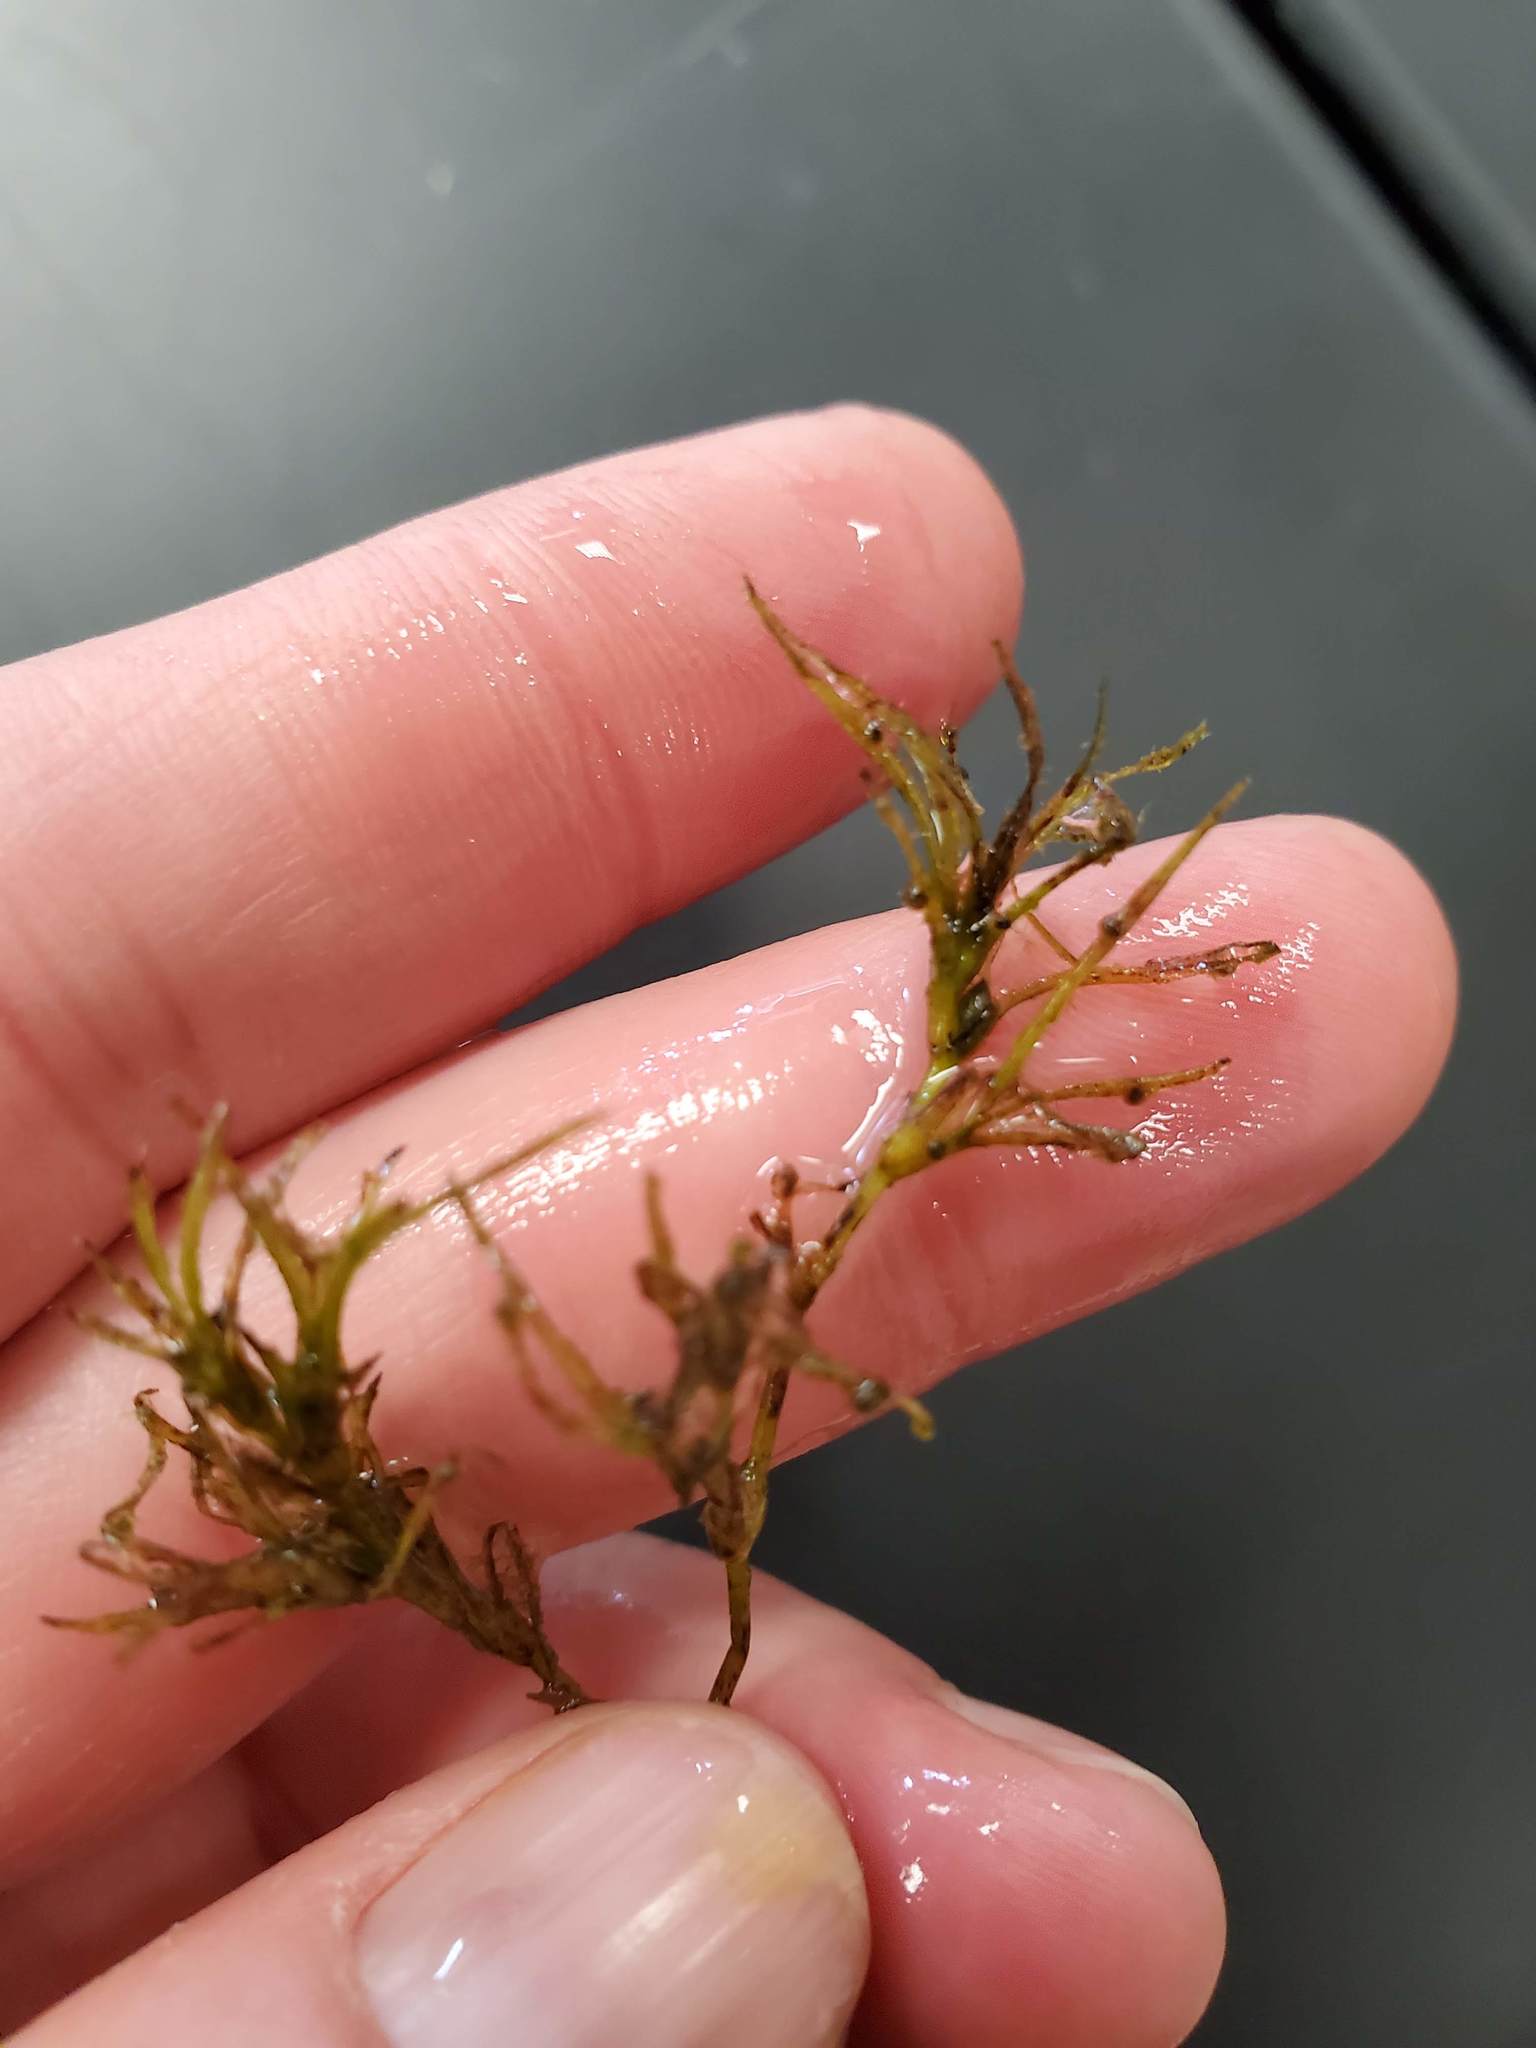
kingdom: Plantae
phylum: Tracheophyta
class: Liliopsida
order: Alismatales
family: Hydrocharitaceae
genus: Najas
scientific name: Najas flexilis
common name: Slender naiad
